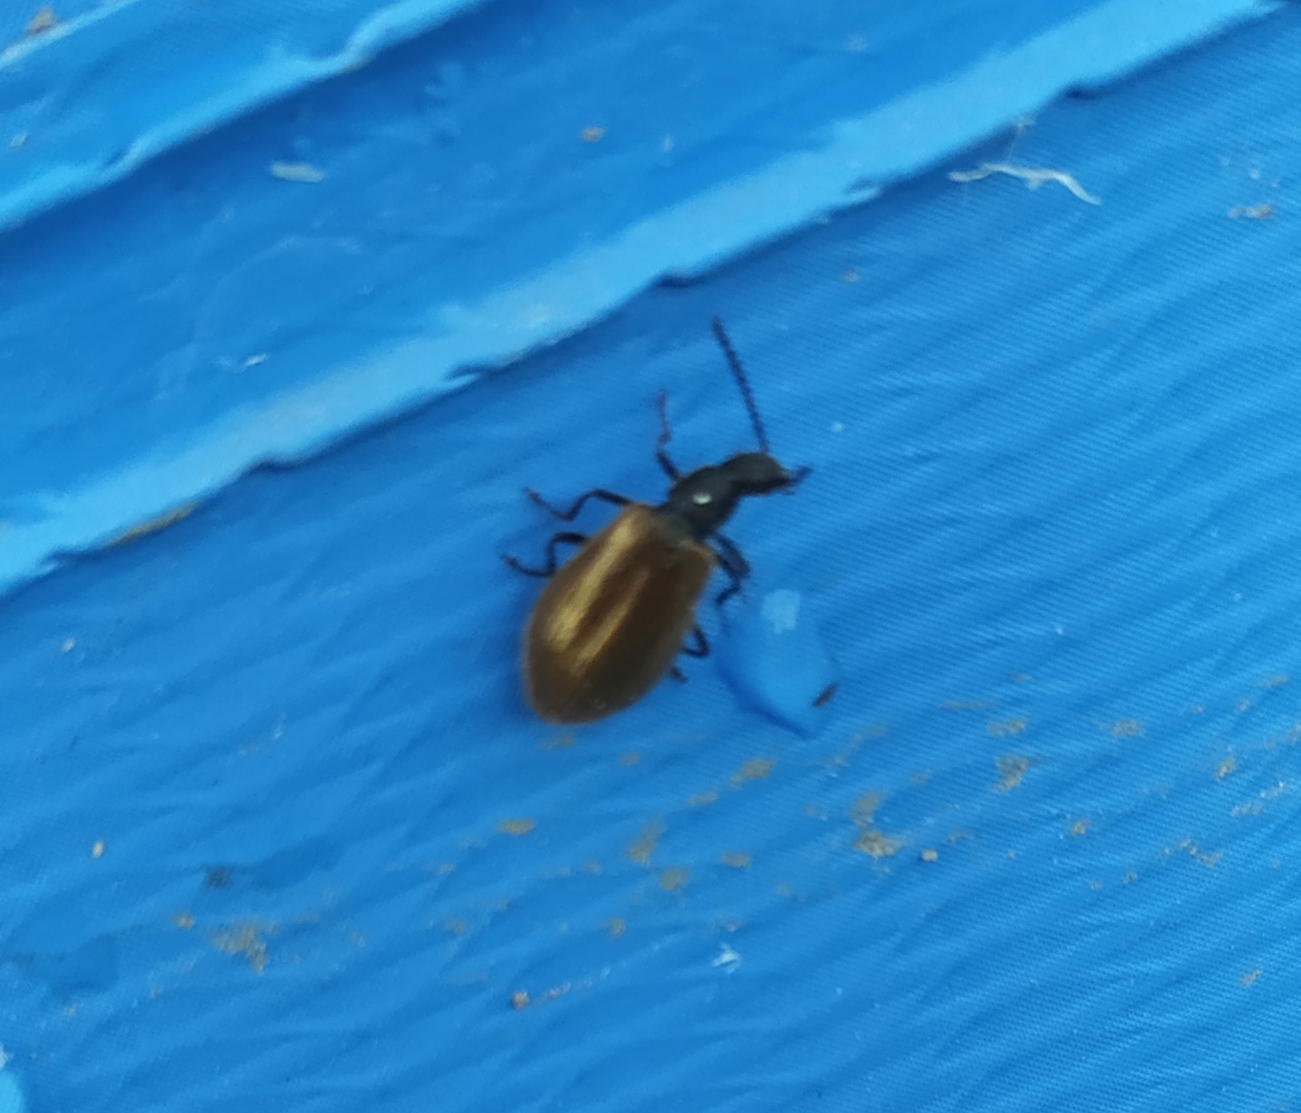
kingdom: Animalia
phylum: Arthropoda
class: Insecta
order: Coleoptera
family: Tenebrionidae
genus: Lagria
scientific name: Lagria hirta
